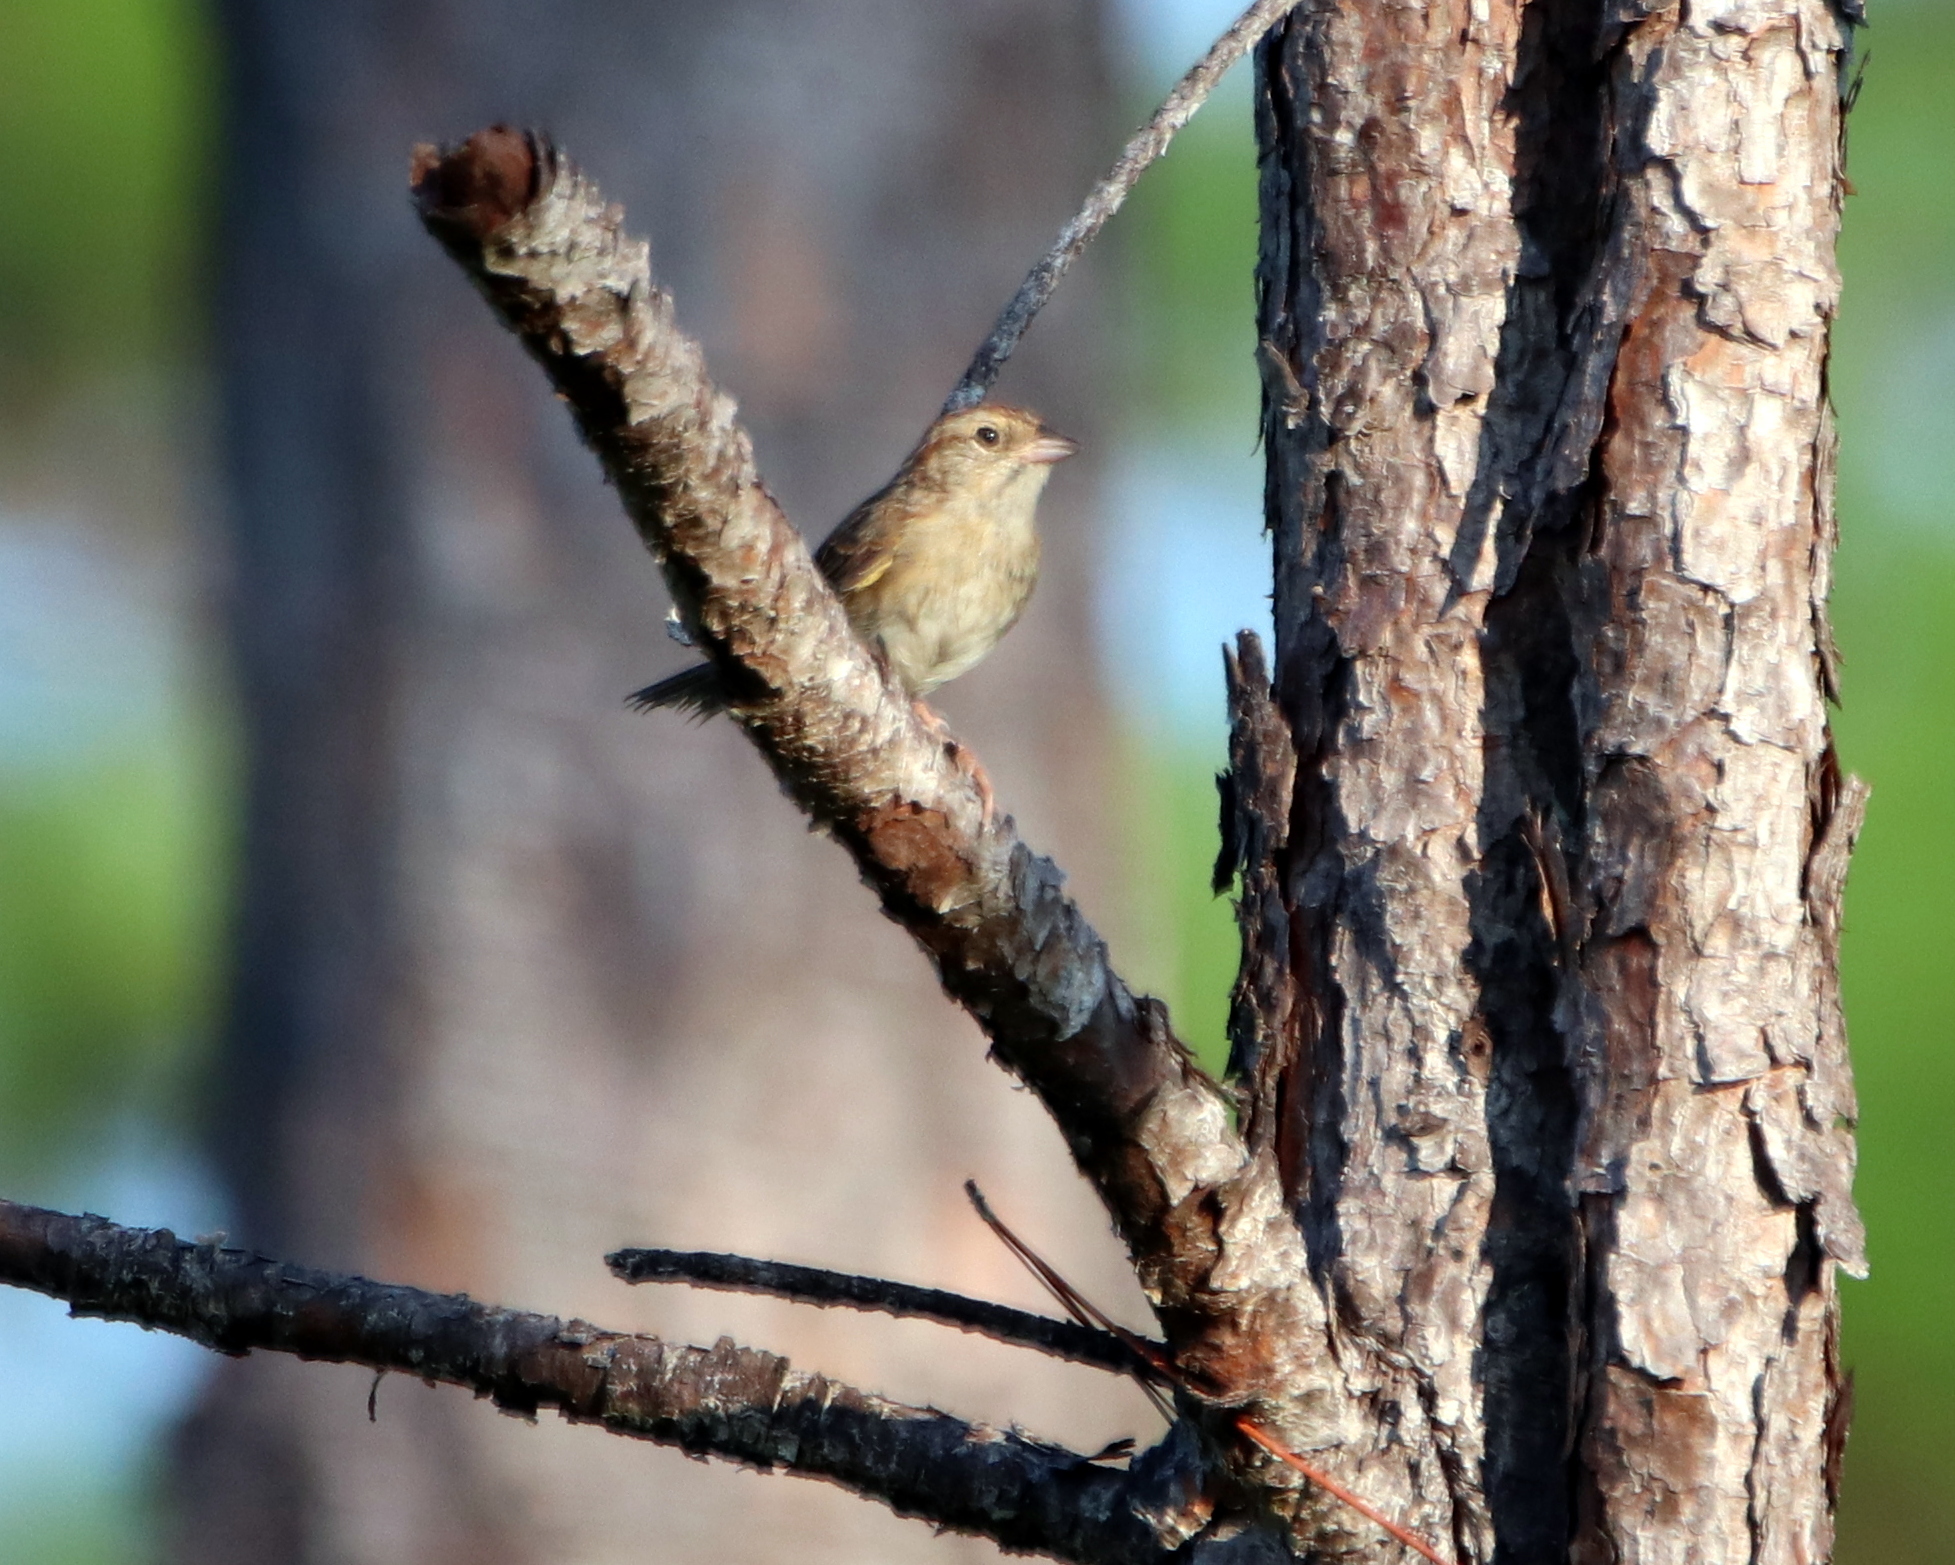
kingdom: Animalia
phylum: Chordata
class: Aves
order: Passeriformes
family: Passerellidae
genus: Peucaea
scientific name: Peucaea aestivalis
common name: Bachman's sparrow
